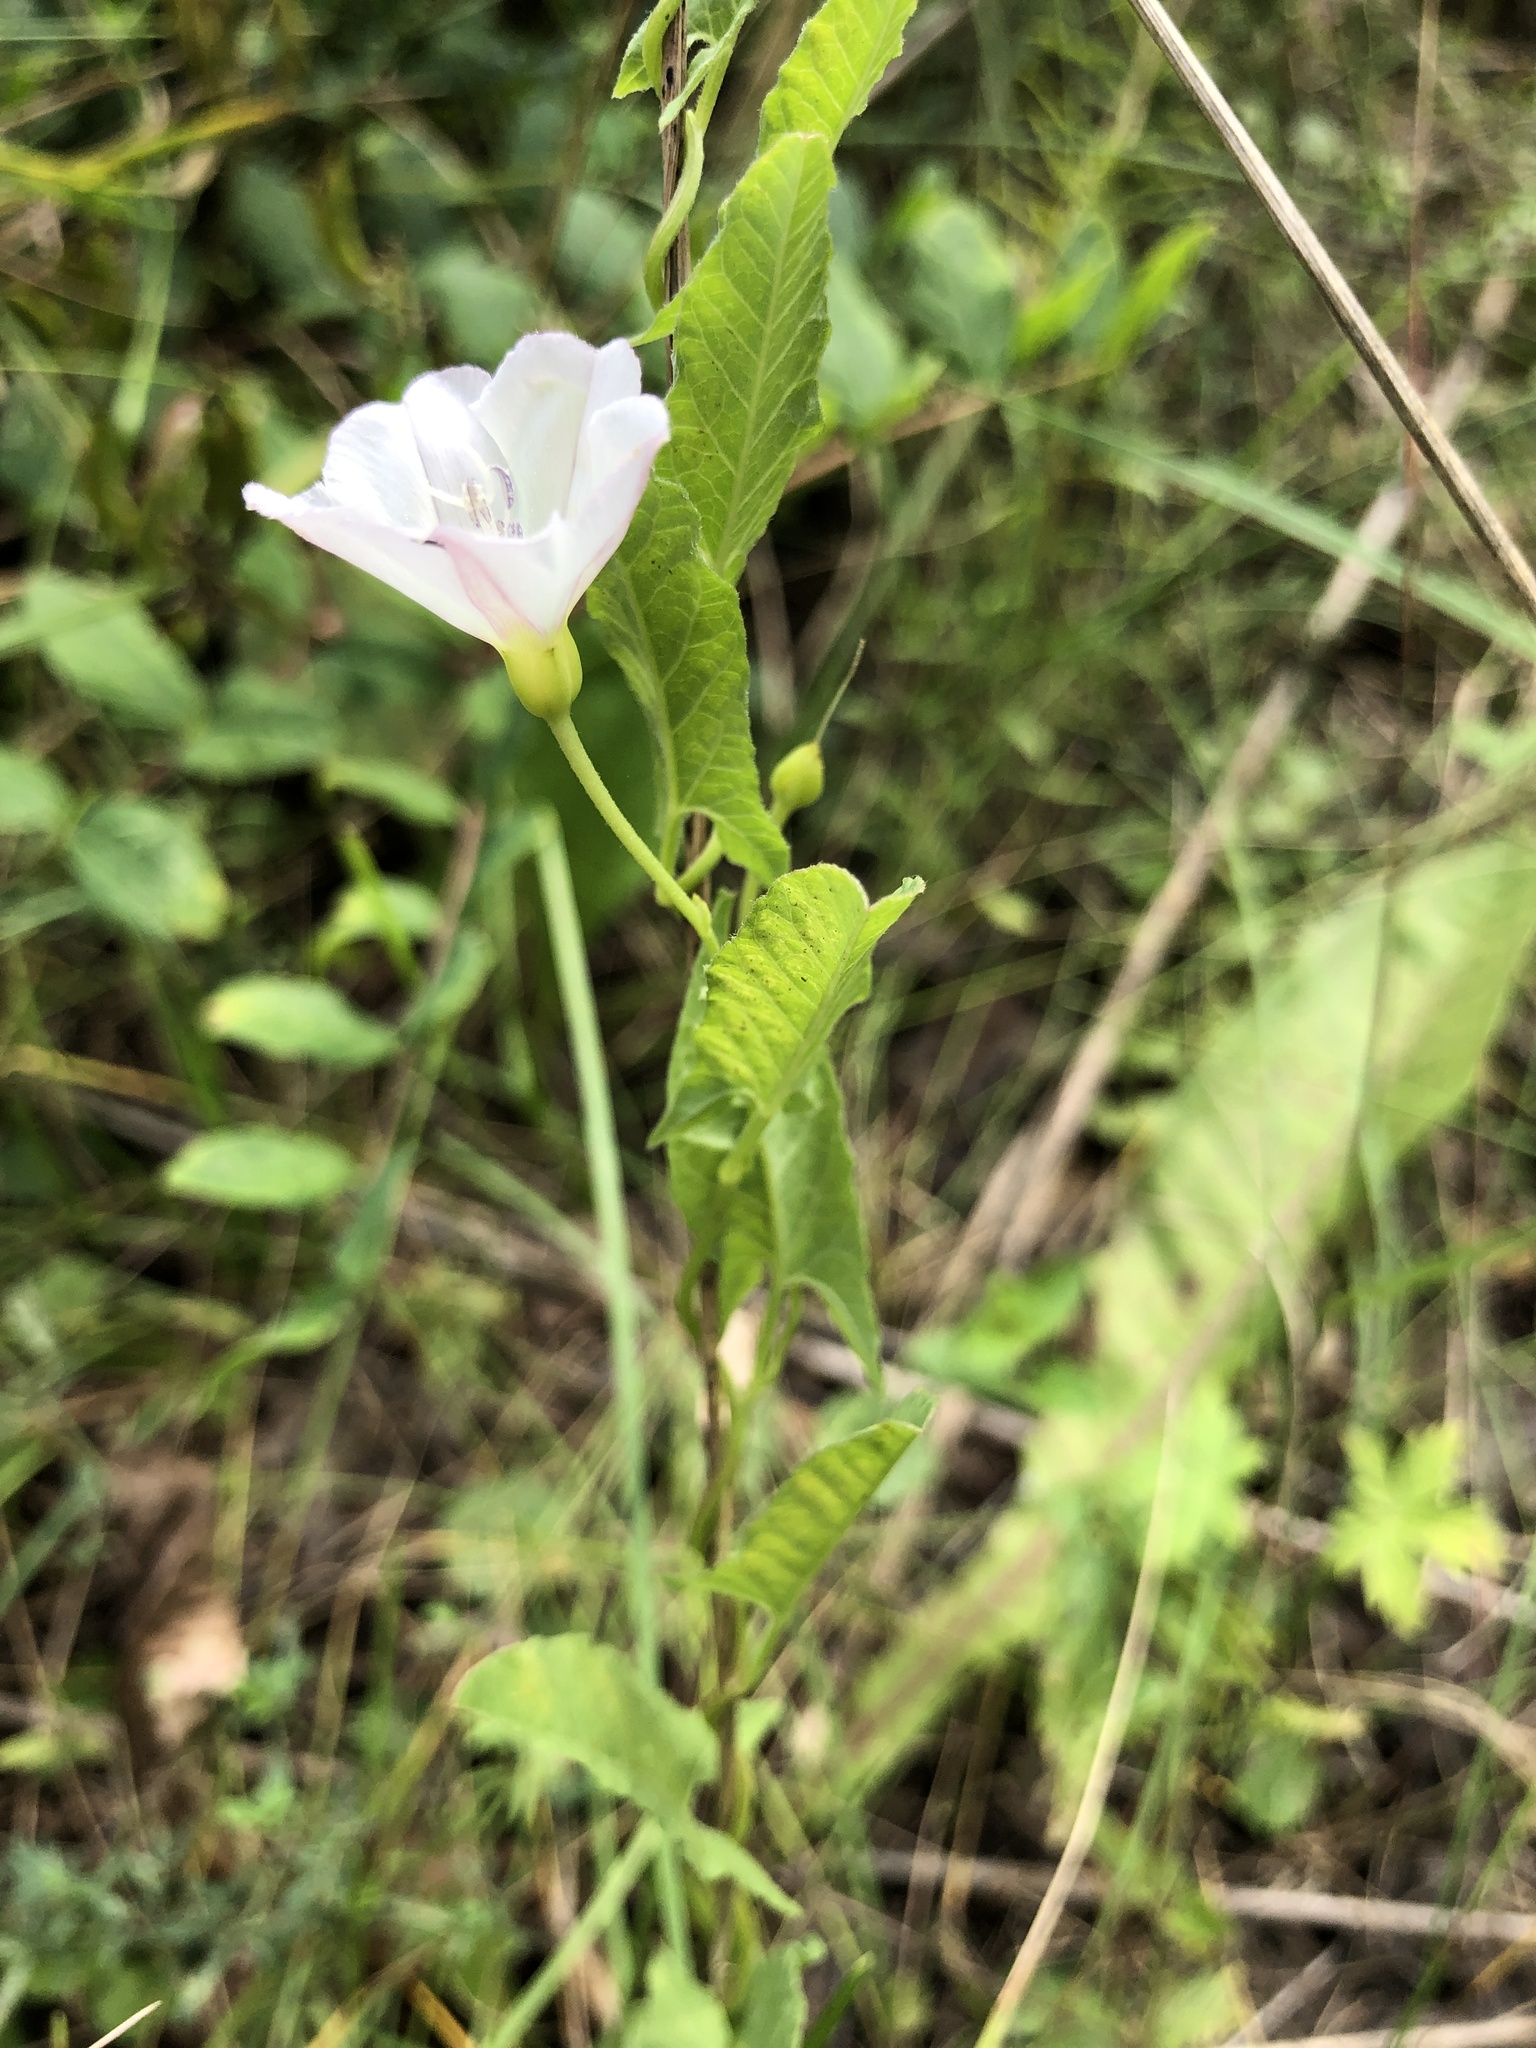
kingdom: Plantae
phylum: Tracheophyta
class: Magnoliopsida
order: Solanales
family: Convolvulaceae
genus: Convolvulus
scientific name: Convolvulus arvensis
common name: Field bindweed
